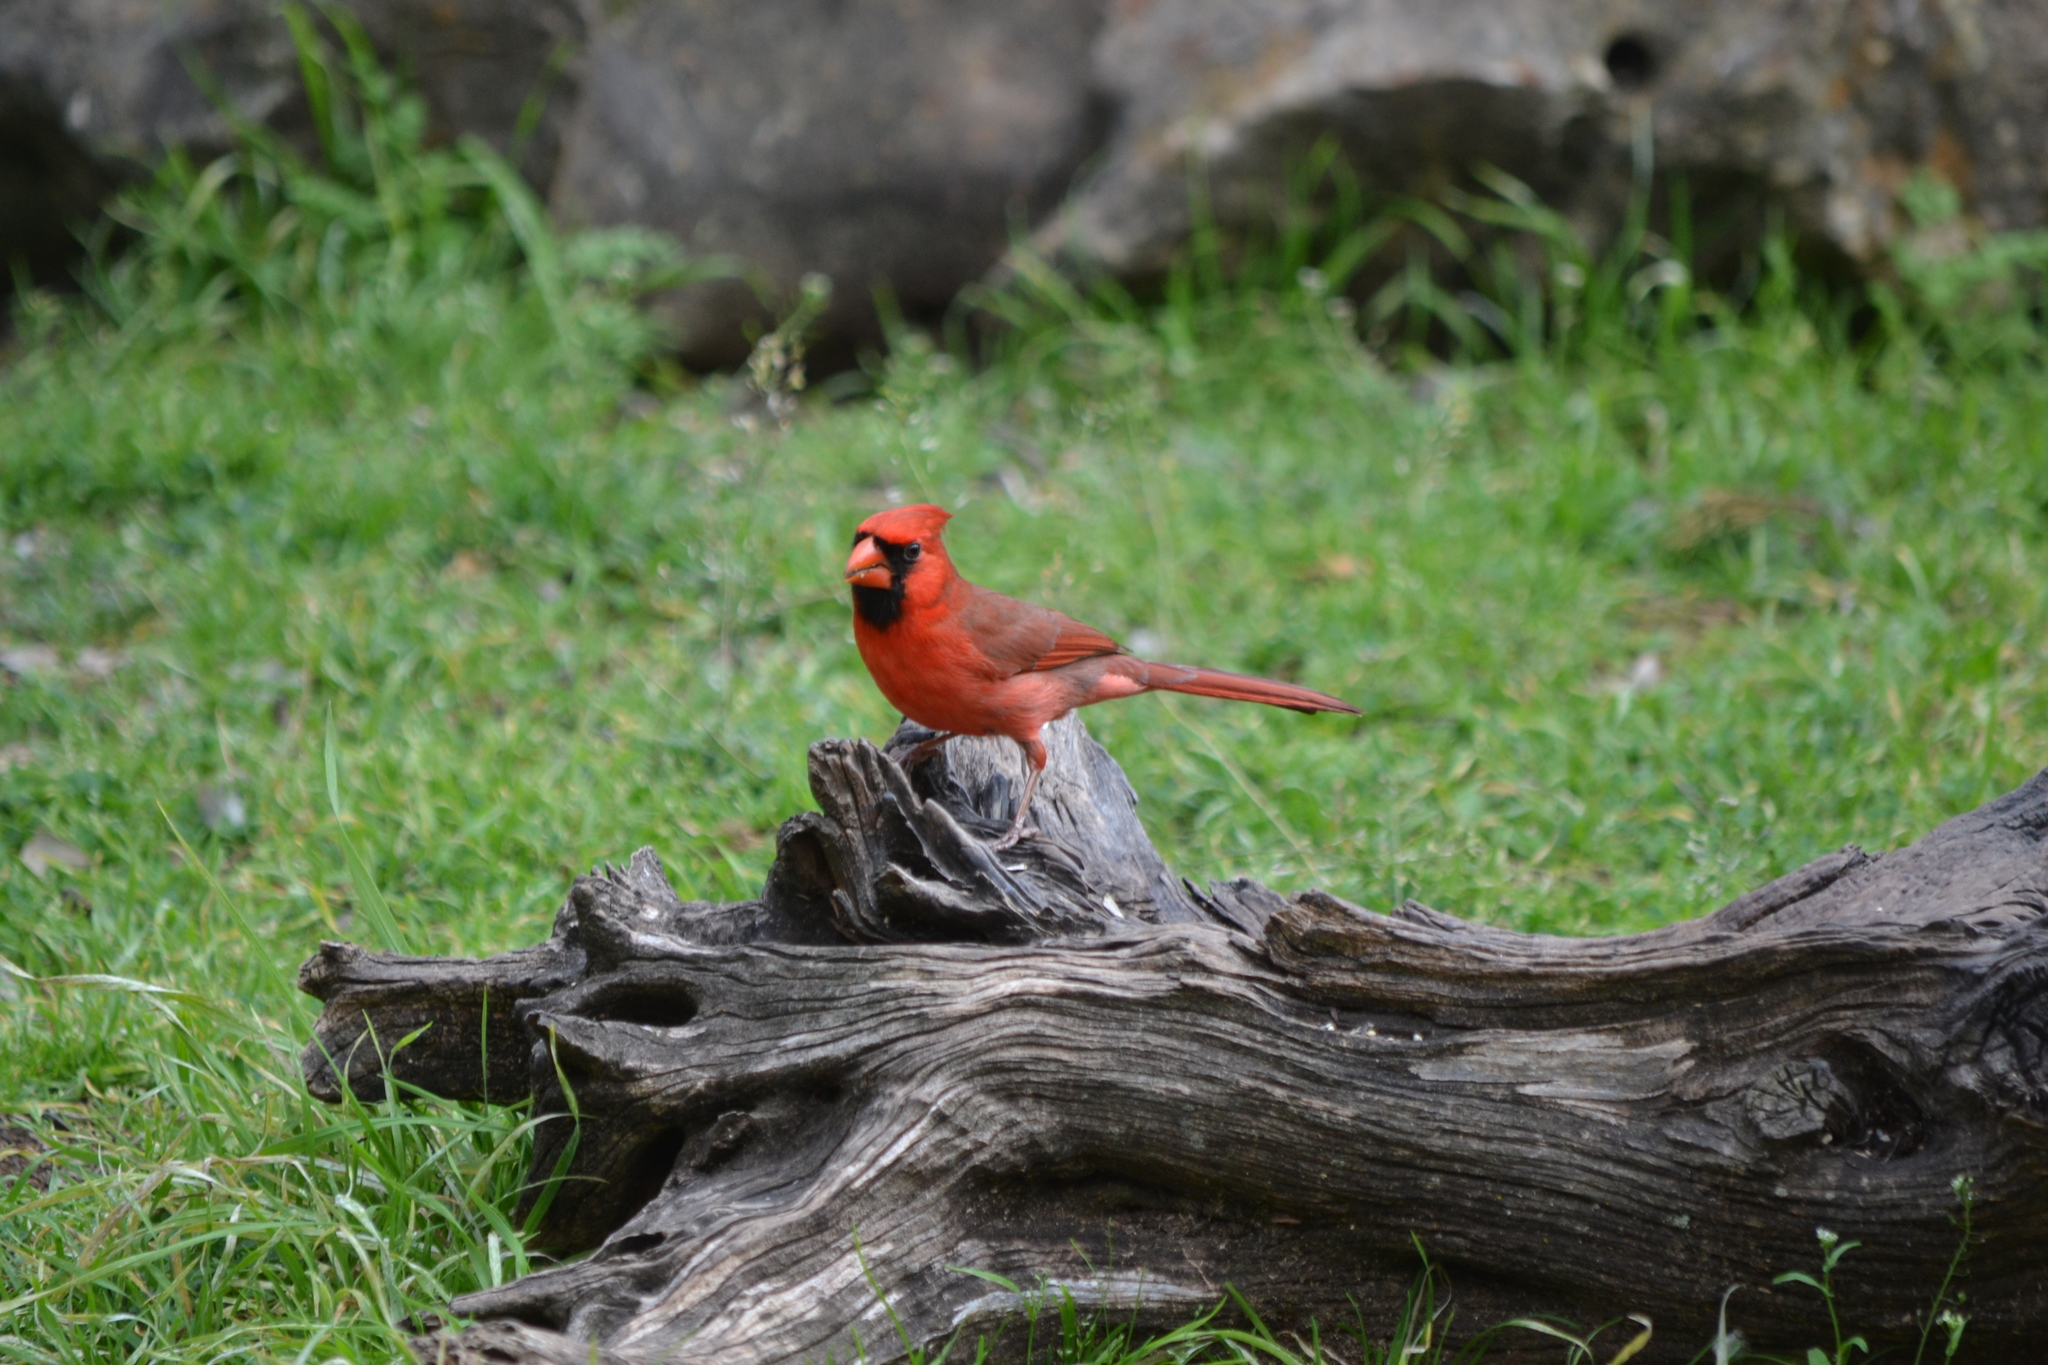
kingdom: Animalia
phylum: Chordata
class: Aves
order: Passeriformes
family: Cardinalidae
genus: Cardinalis
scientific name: Cardinalis cardinalis
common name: Northern cardinal
